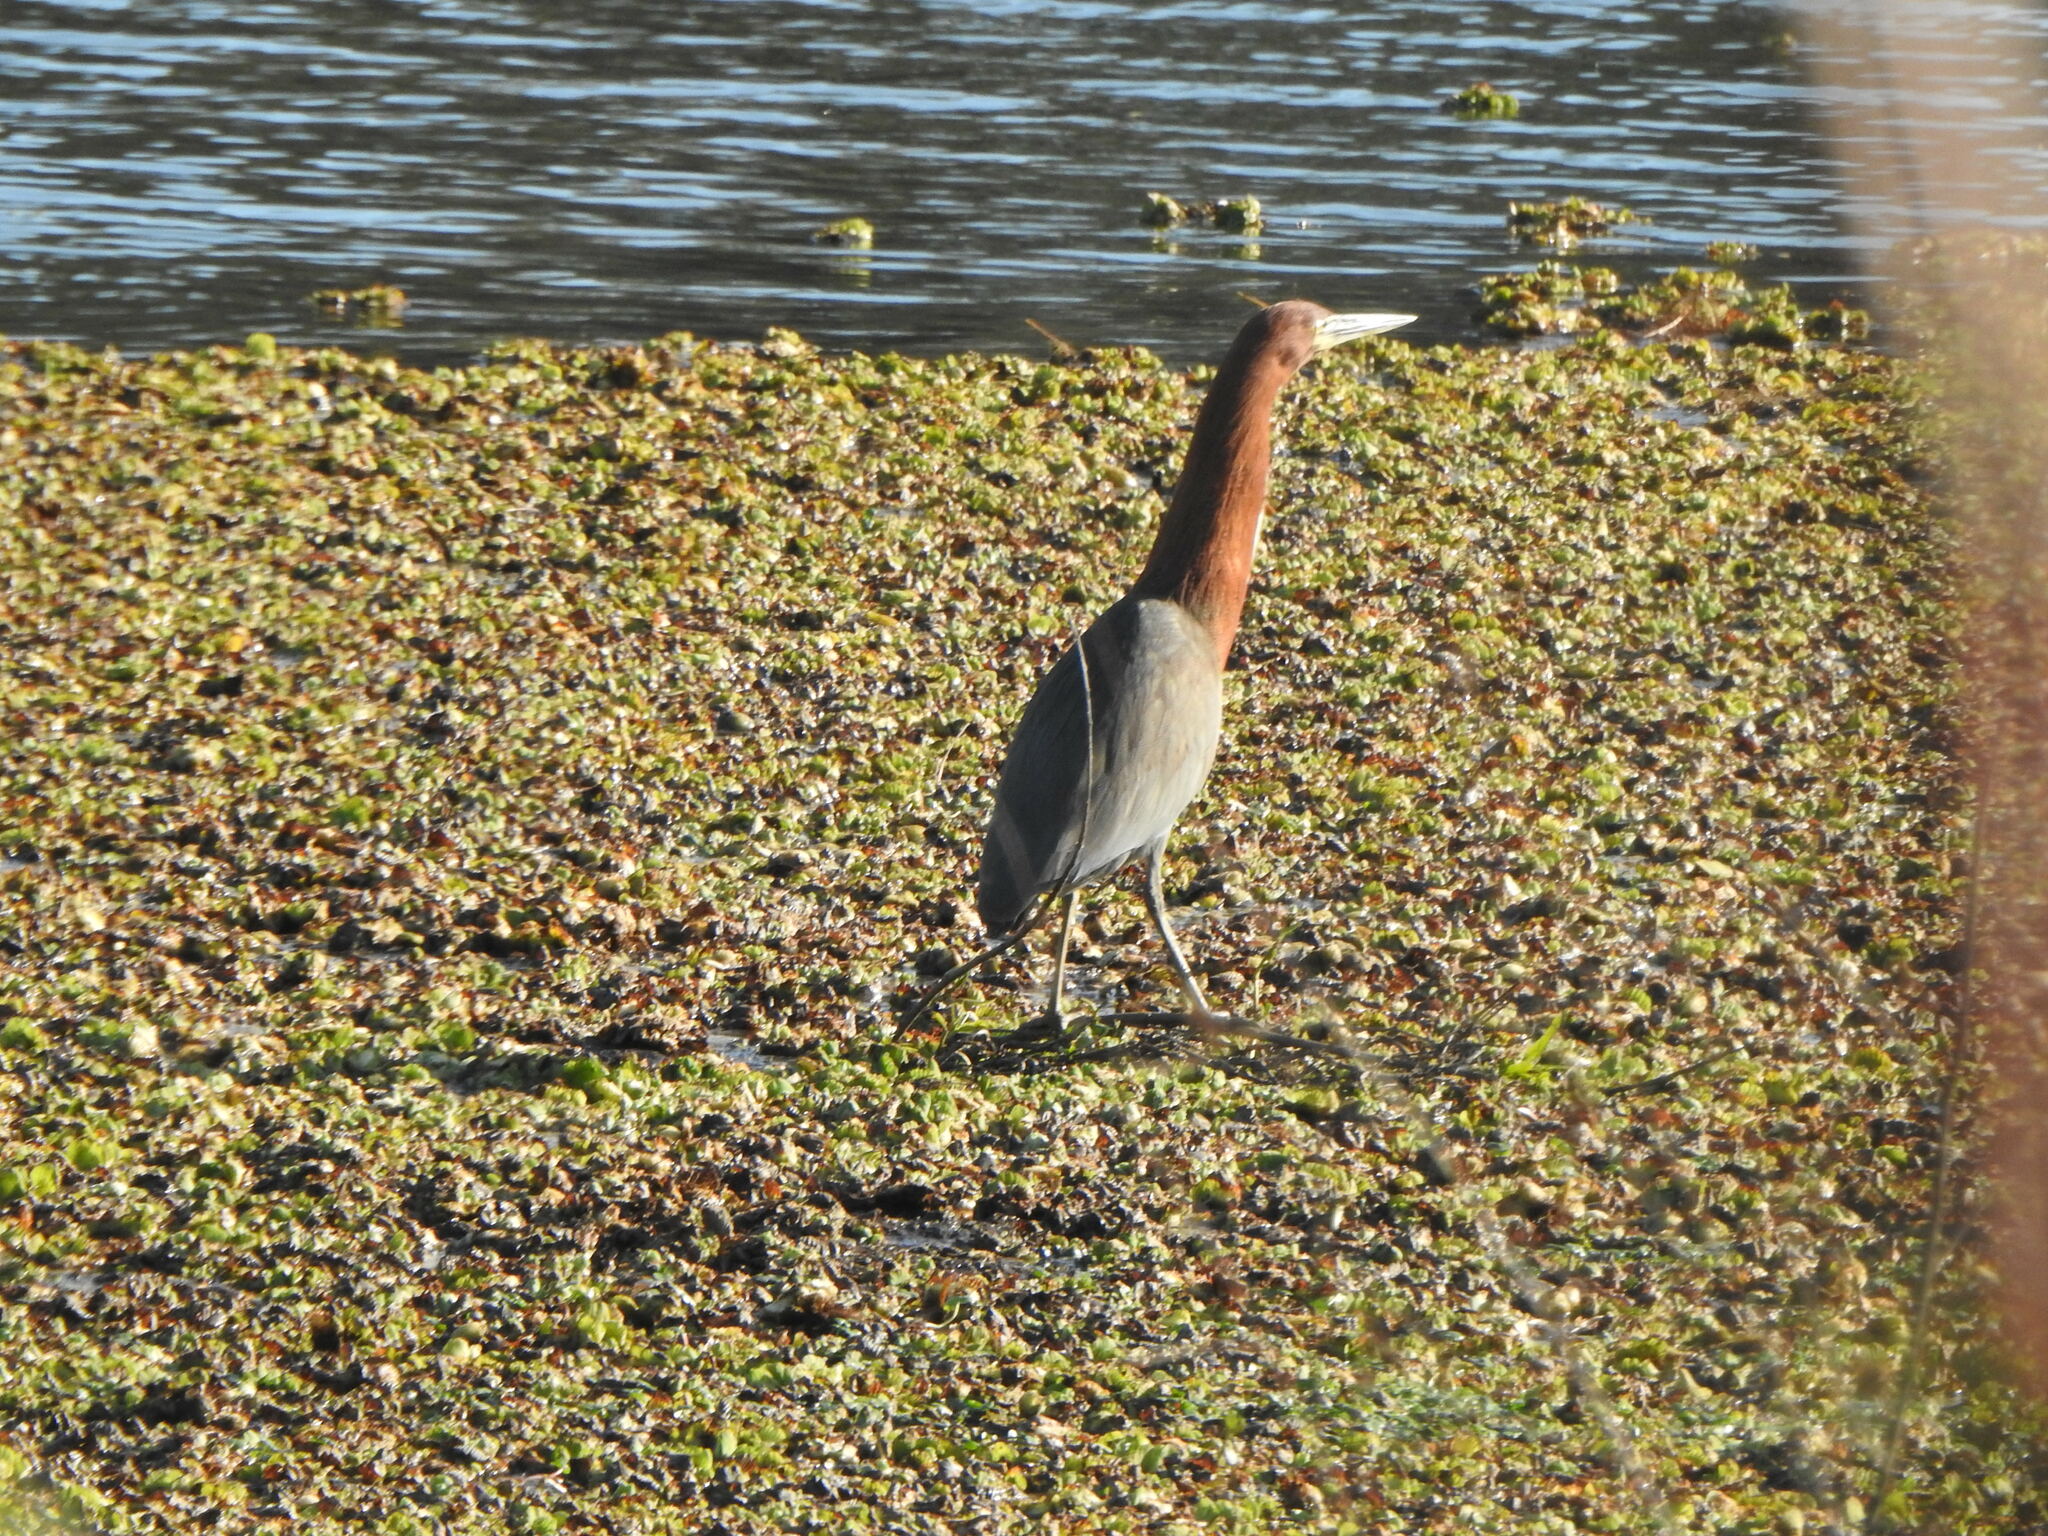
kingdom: Animalia
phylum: Chordata
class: Aves
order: Pelecaniformes
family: Ardeidae
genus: Tigrisoma
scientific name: Tigrisoma lineatum
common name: Rufescent tiger-heron
